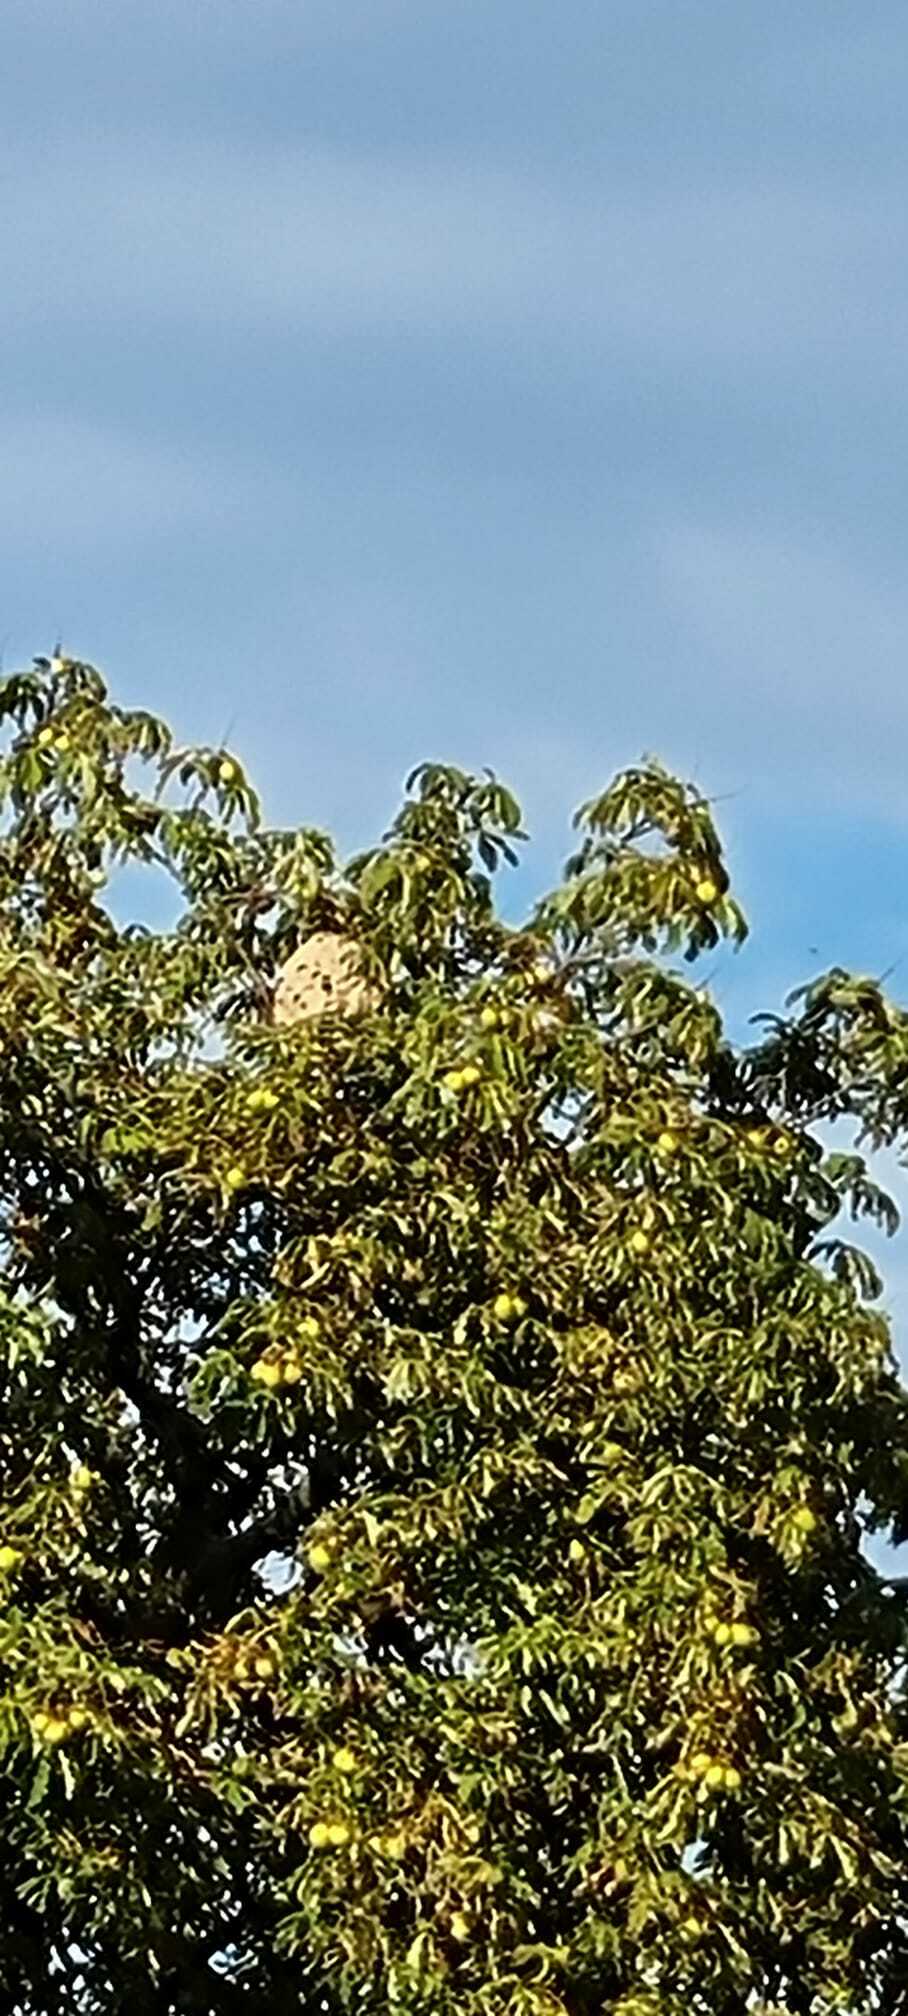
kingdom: Animalia
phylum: Arthropoda
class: Insecta
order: Hymenoptera
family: Vespidae
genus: Vespa
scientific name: Vespa velutina
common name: Asian hornet
